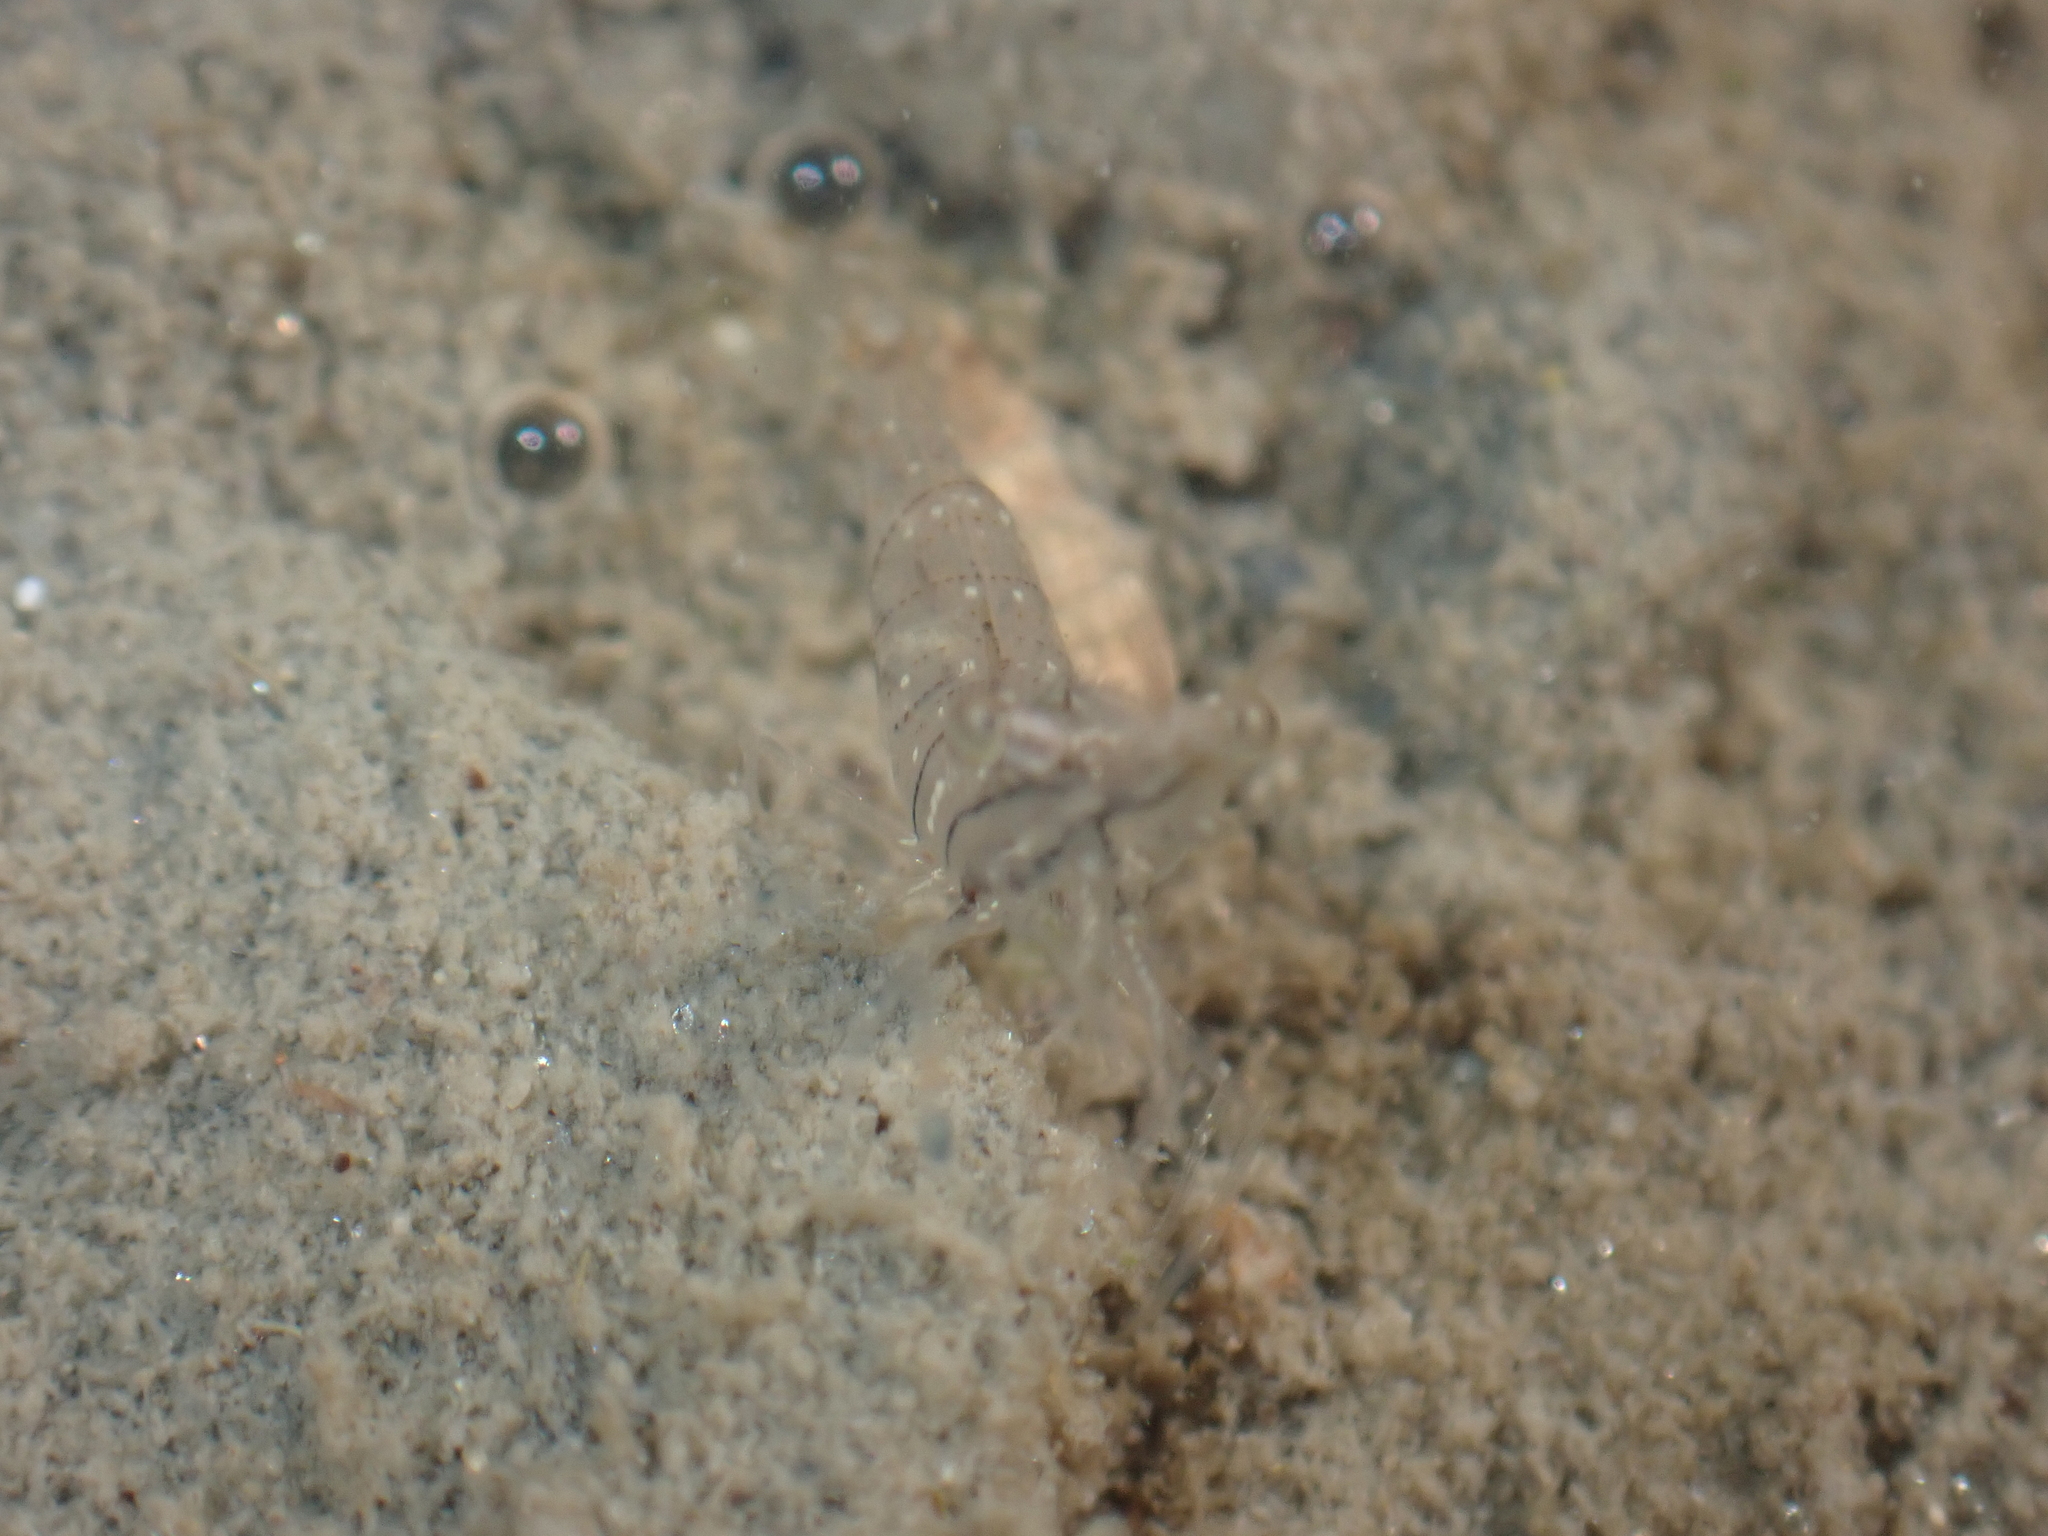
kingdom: Animalia
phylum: Arthropoda
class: Malacostraca
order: Decapoda
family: Palaemonidae
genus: Palaemon
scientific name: Palaemon elegans
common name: Grass prawm
